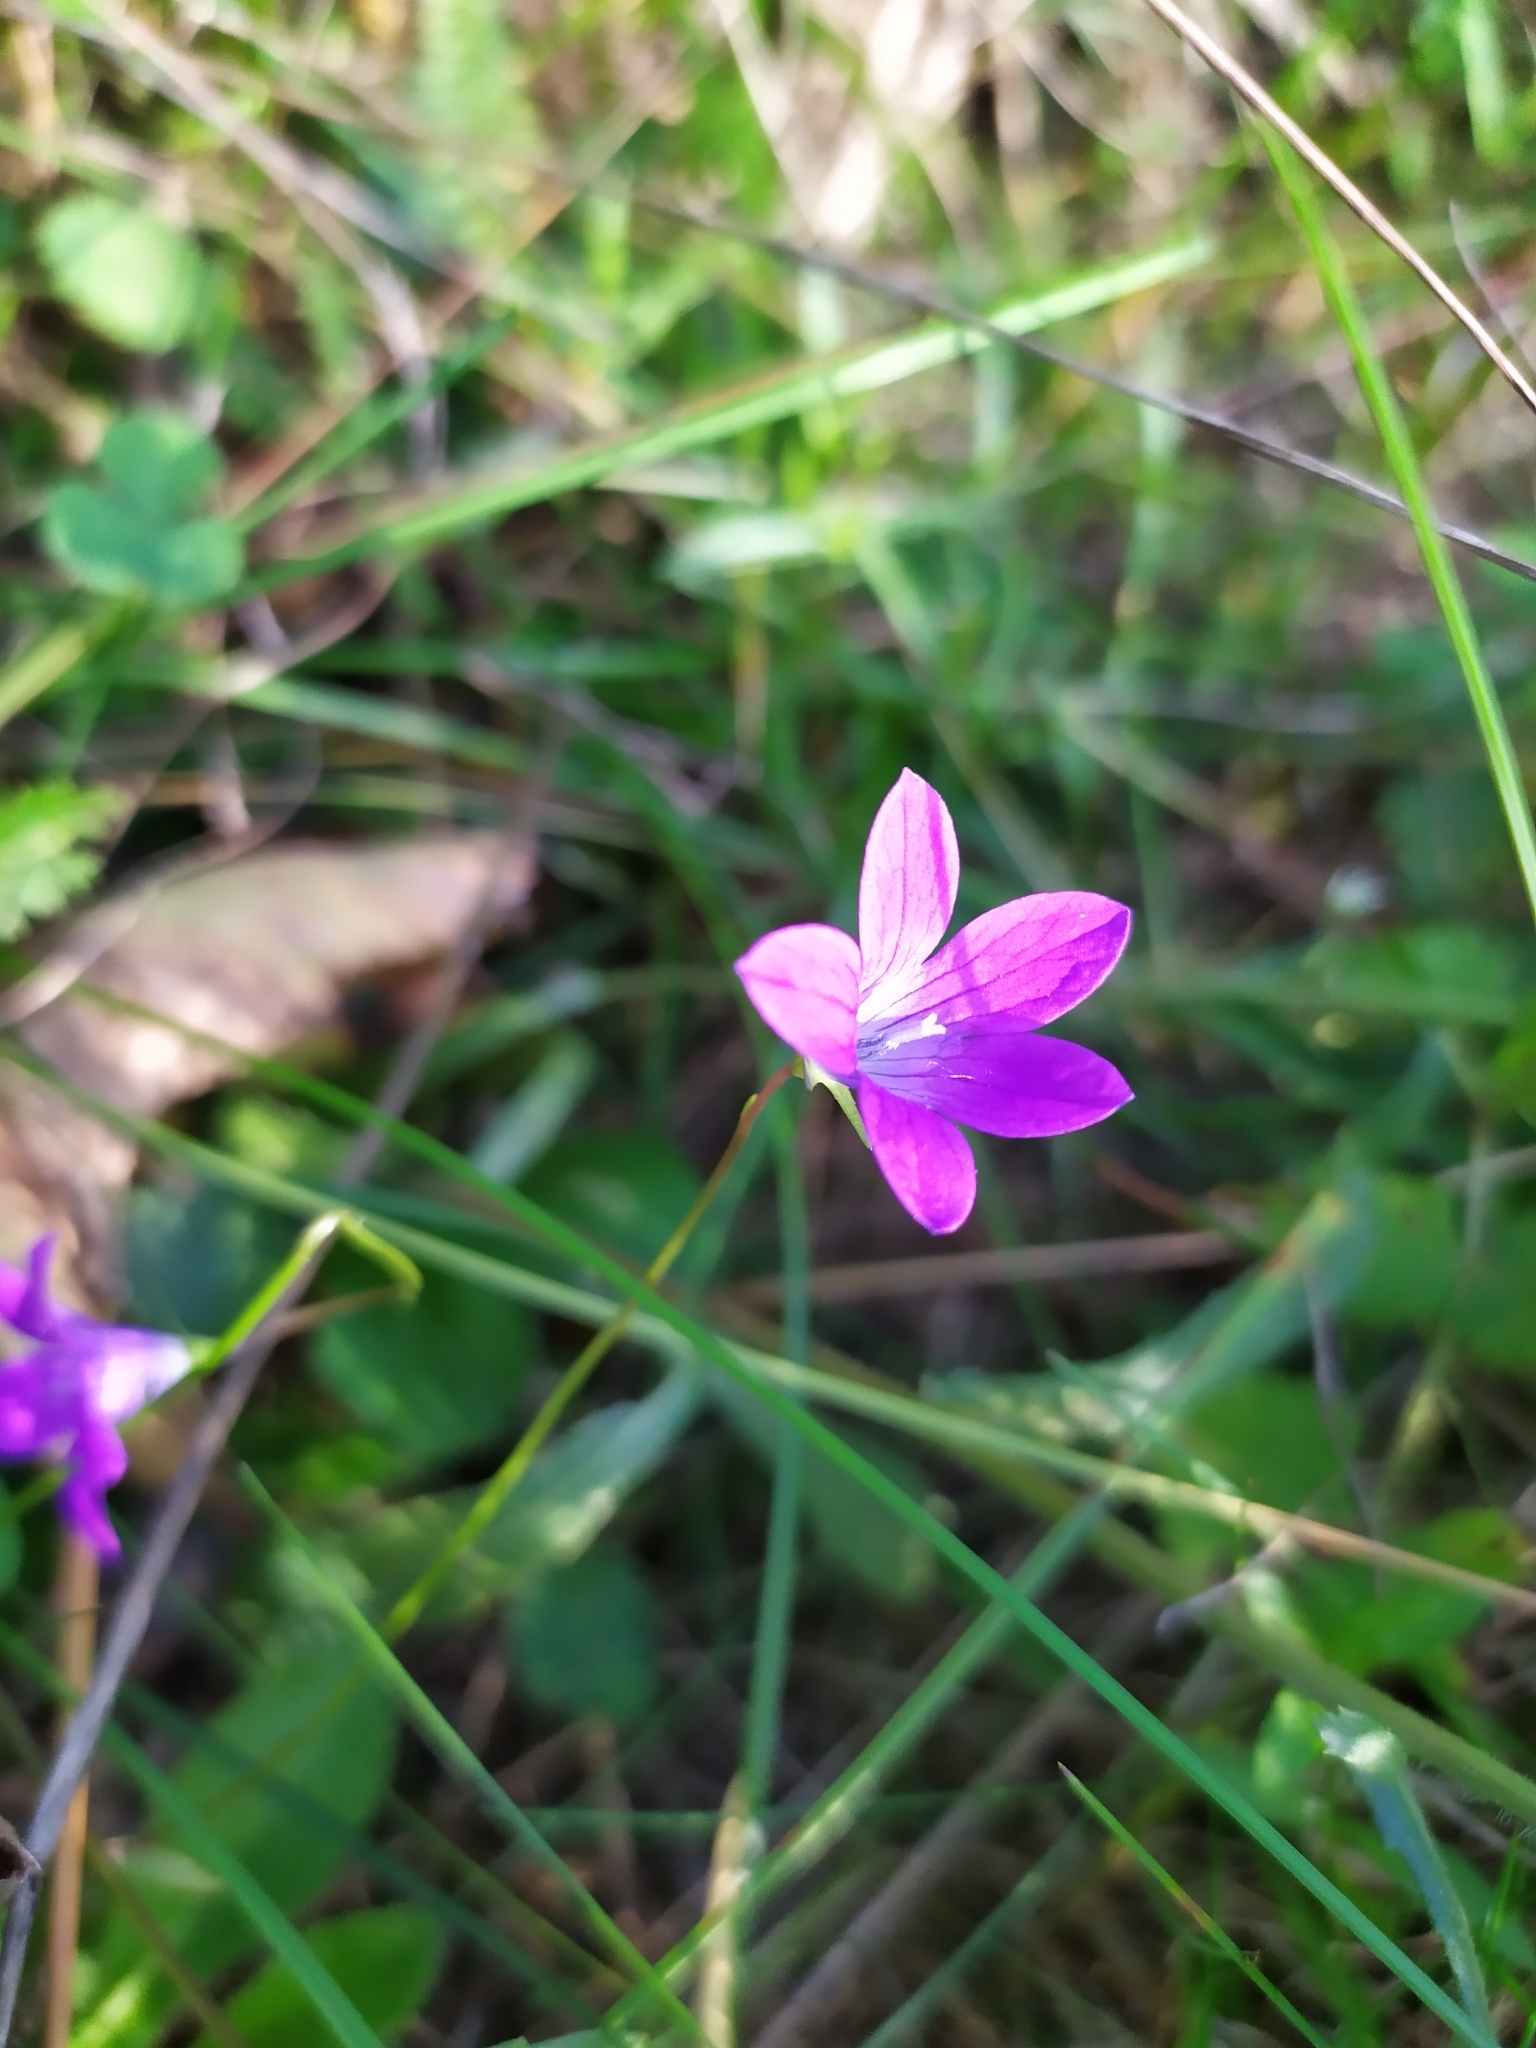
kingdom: Plantae
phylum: Tracheophyta
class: Magnoliopsida
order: Asterales
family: Campanulaceae
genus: Campanula
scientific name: Campanula patula
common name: Spreading bellflower
